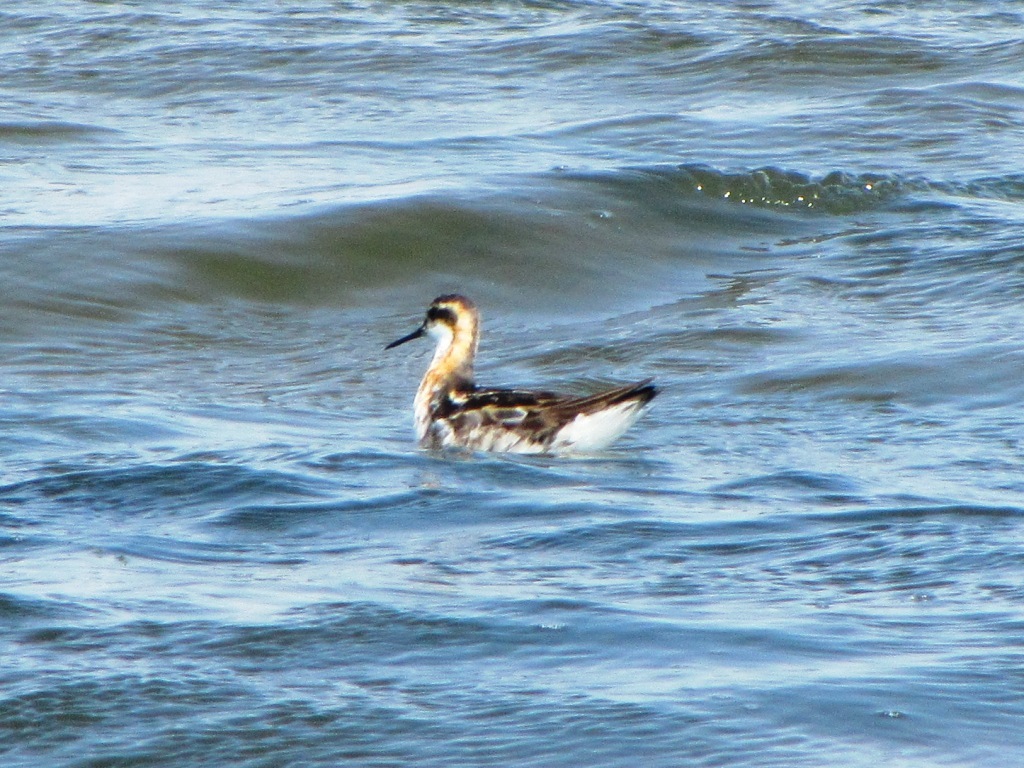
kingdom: Animalia
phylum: Chordata
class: Aves
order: Charadriiformes
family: Scolopacidae
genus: Phalaropus
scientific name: Phalaropus lobatus
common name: Red-necked phalarope
